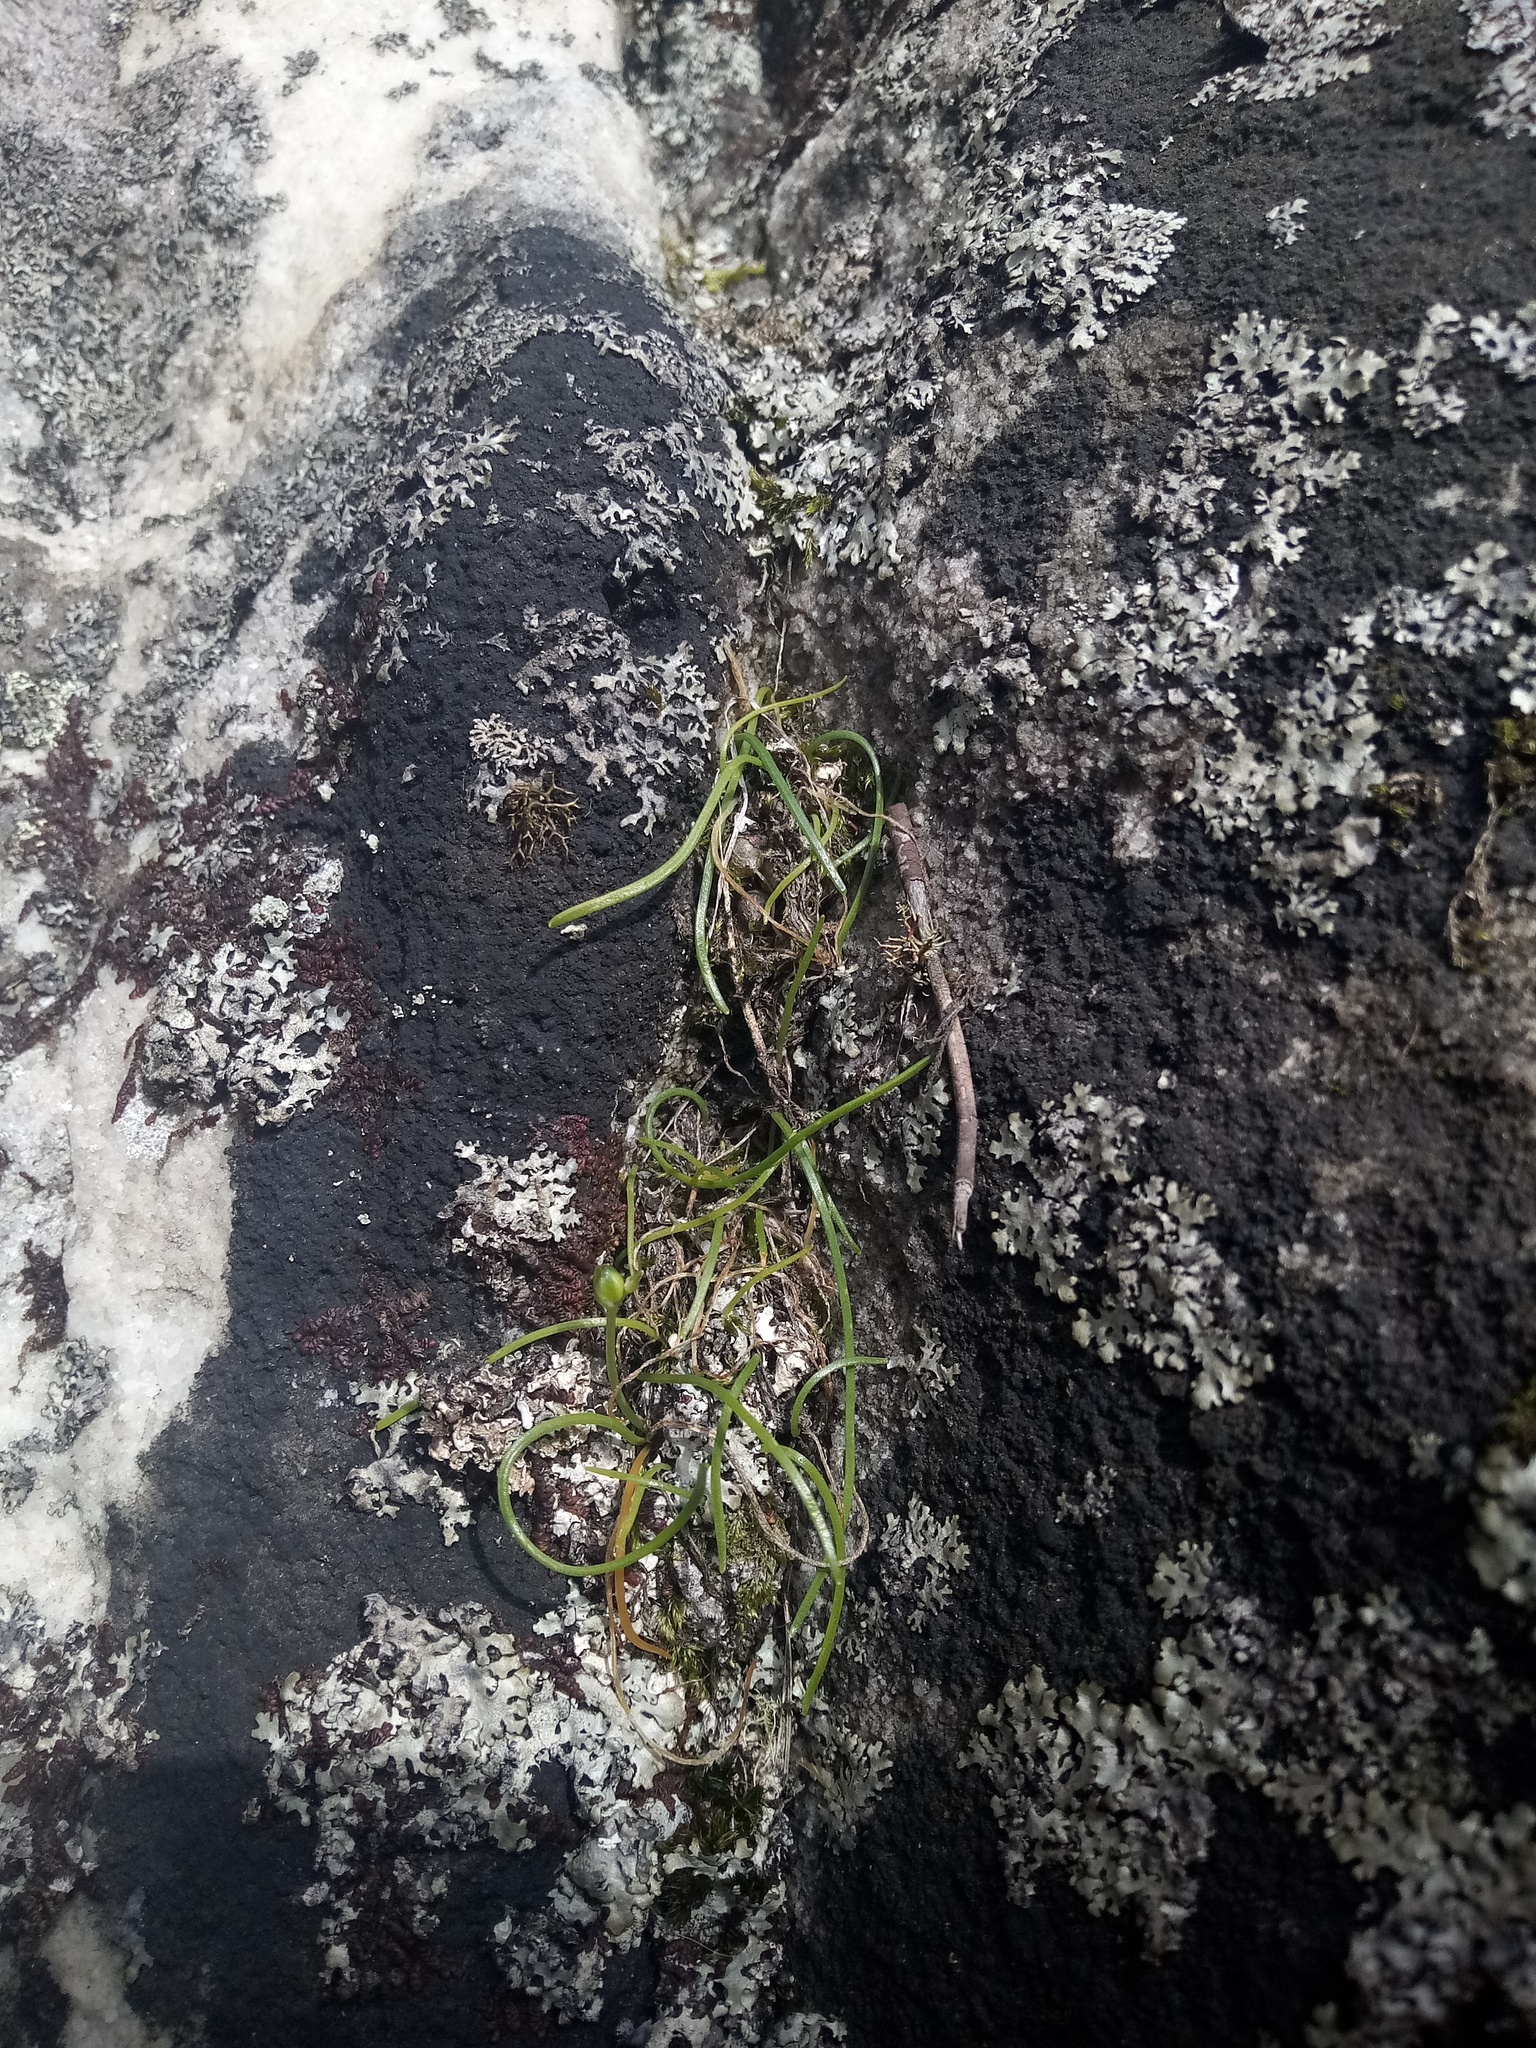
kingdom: Plantae
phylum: Tracheophyta
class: Liliopsida
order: Asparagales
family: Asparagaceae
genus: Ornithogalum
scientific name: Ornithogalum niveum
